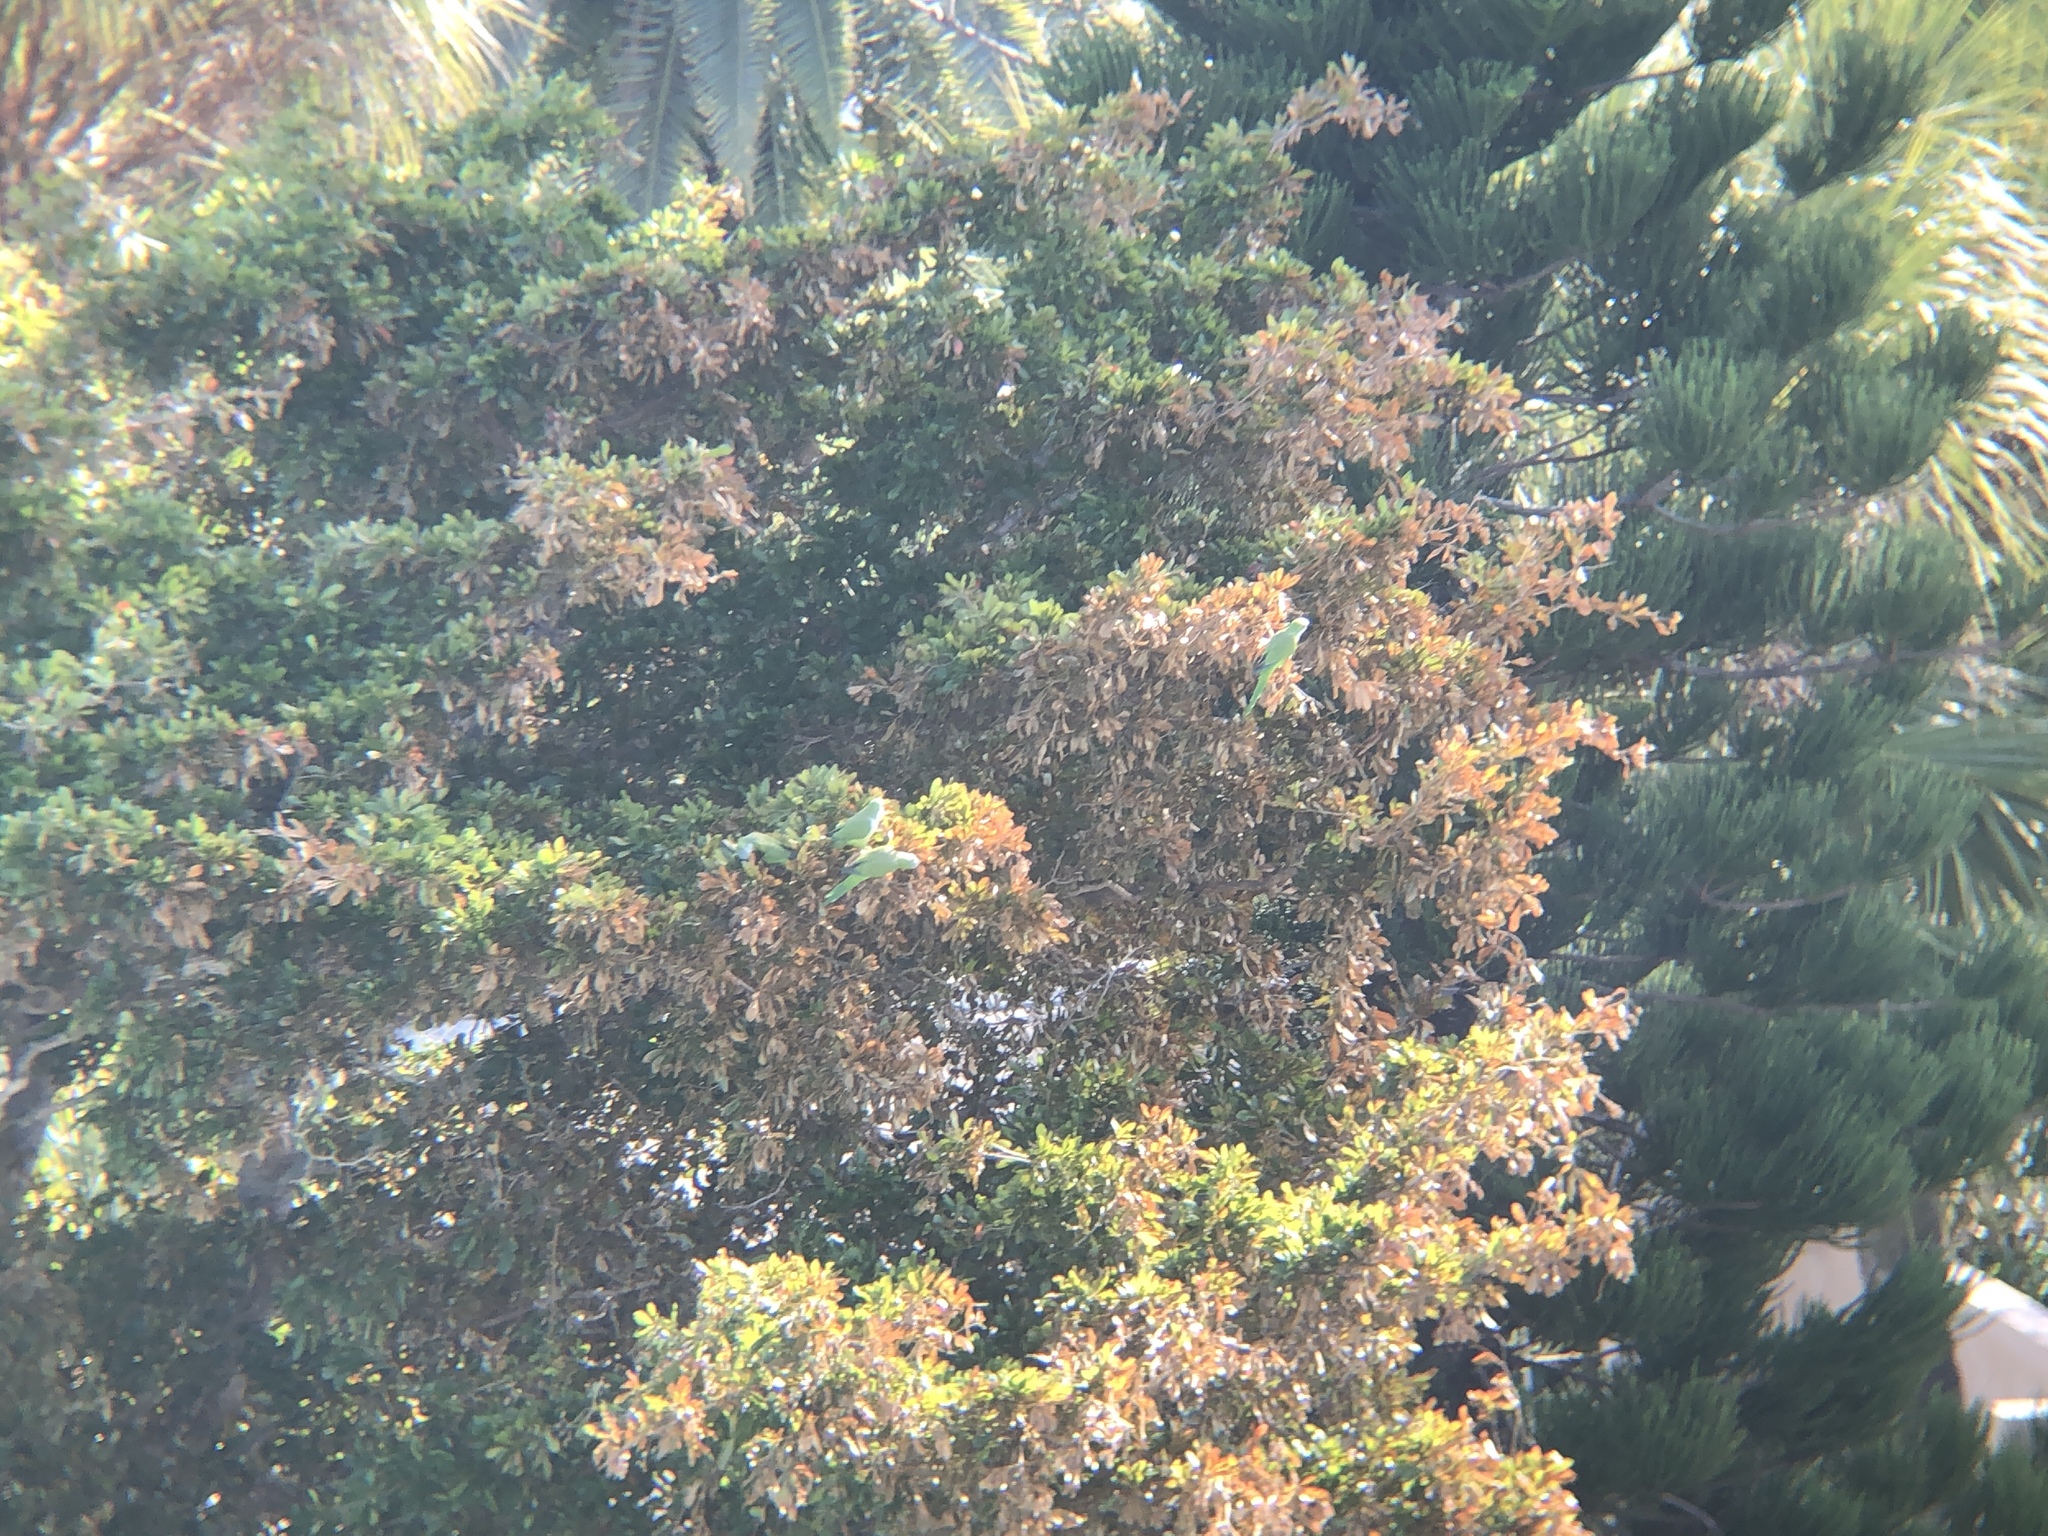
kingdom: Animalia
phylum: Chordata
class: Aves
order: Psittaciformes
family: Psittacidae
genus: Myiopsitta
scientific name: Myiopsitta monachus
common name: Monk parakeet
